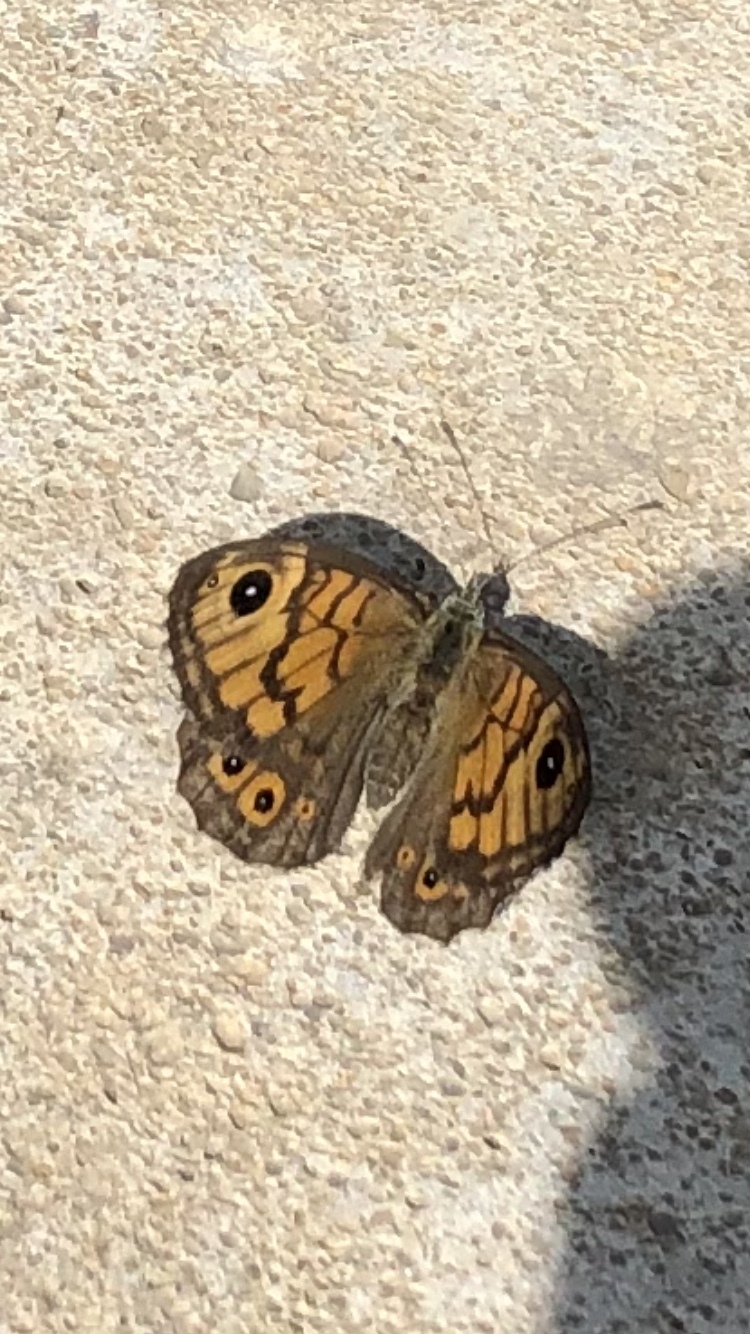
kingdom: Animalia
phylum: Arthropoda
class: Insecta
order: Lepidoptera
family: Nymphalidae
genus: Pararge
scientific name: Pararge Lasiommata megera
